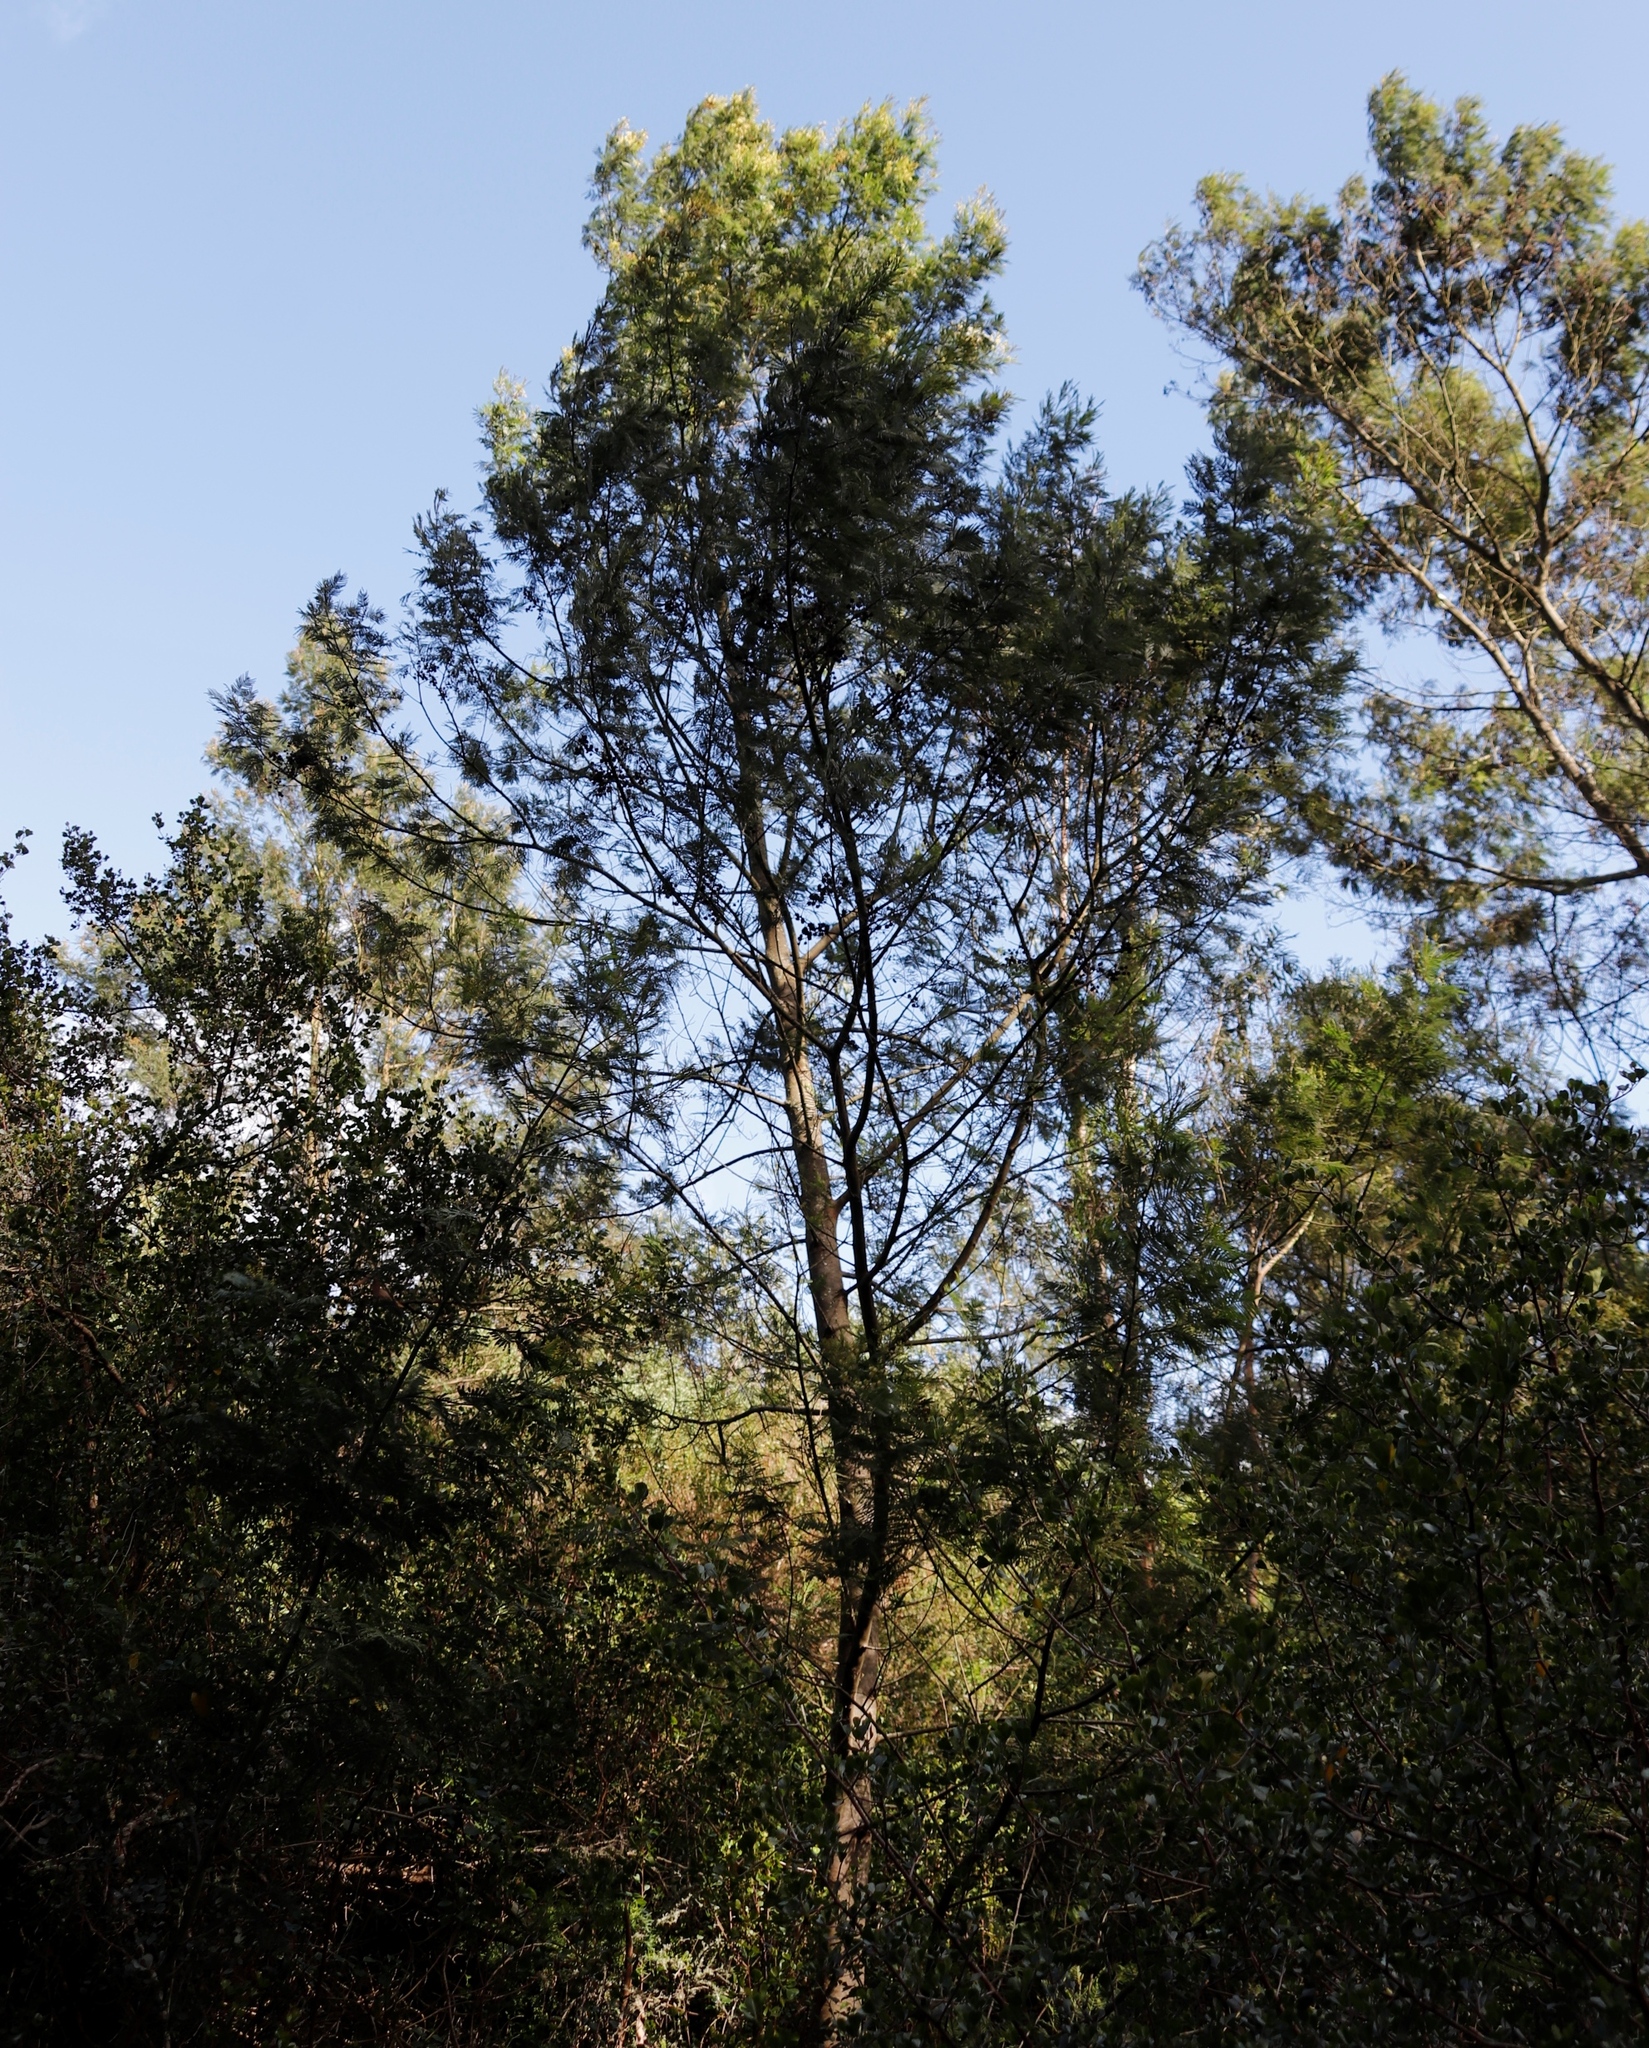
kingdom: Plantae
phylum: Tracheophyta
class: Magnoliopsida
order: Fabales
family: Fabaceae
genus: Acacia
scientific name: Acacia mearnsii
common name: Black wattle
